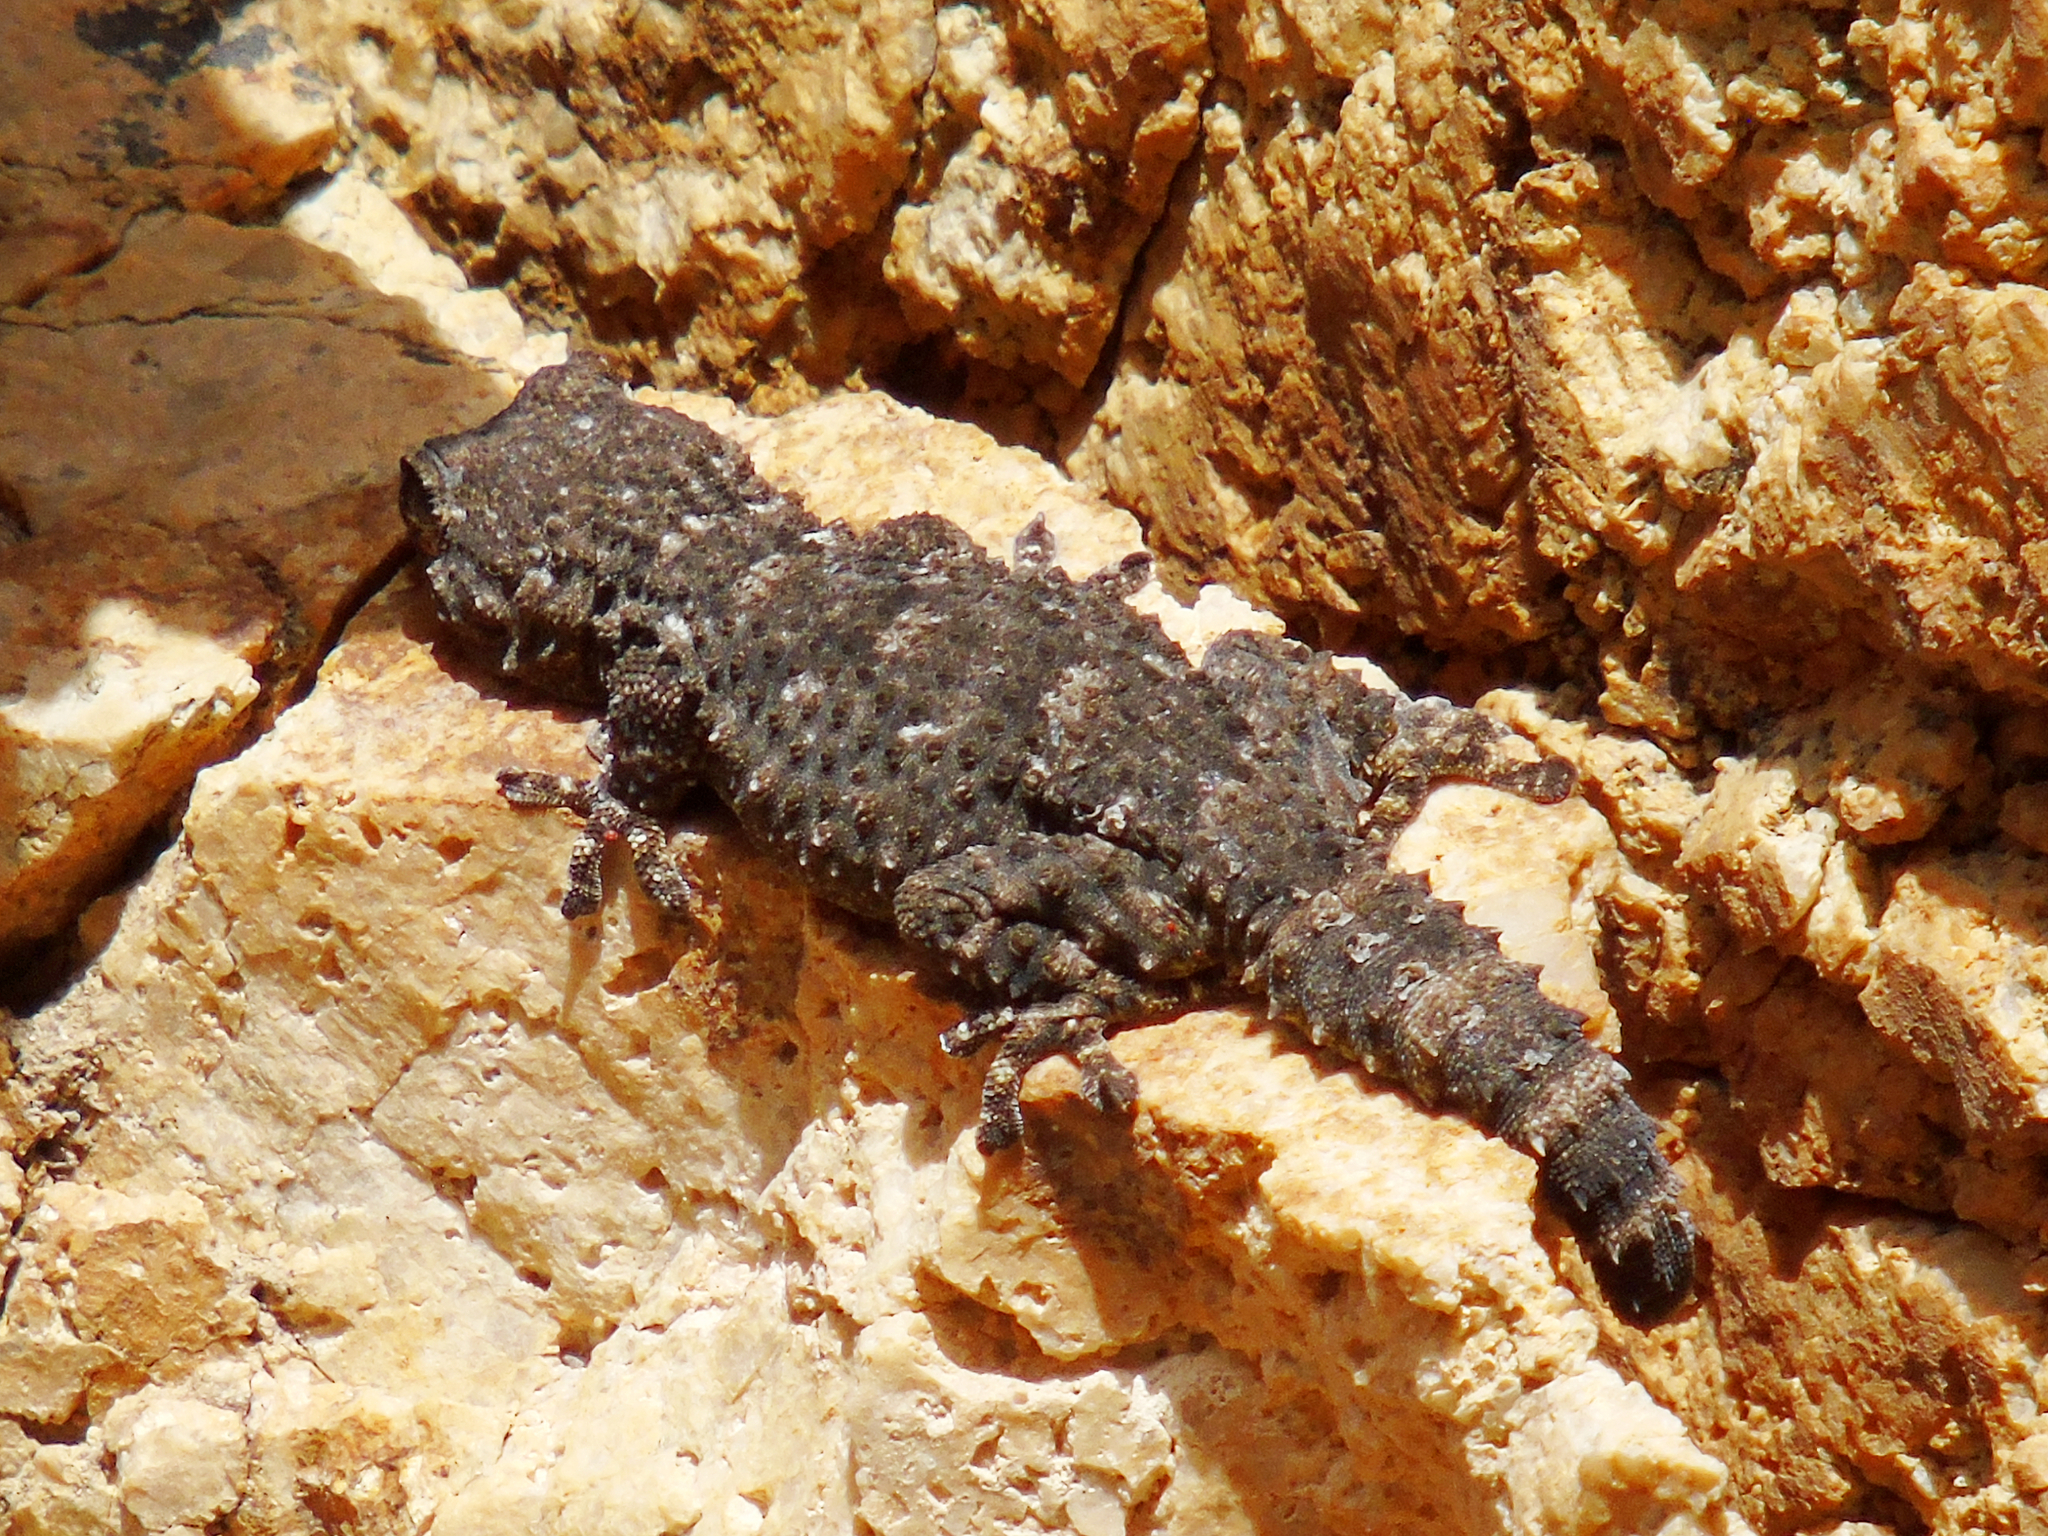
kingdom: Animalia
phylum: Chordata
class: Squamata
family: Phyllodactylidae
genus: Tarentola
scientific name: Tarentola mauritanica
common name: Moorish gecko
